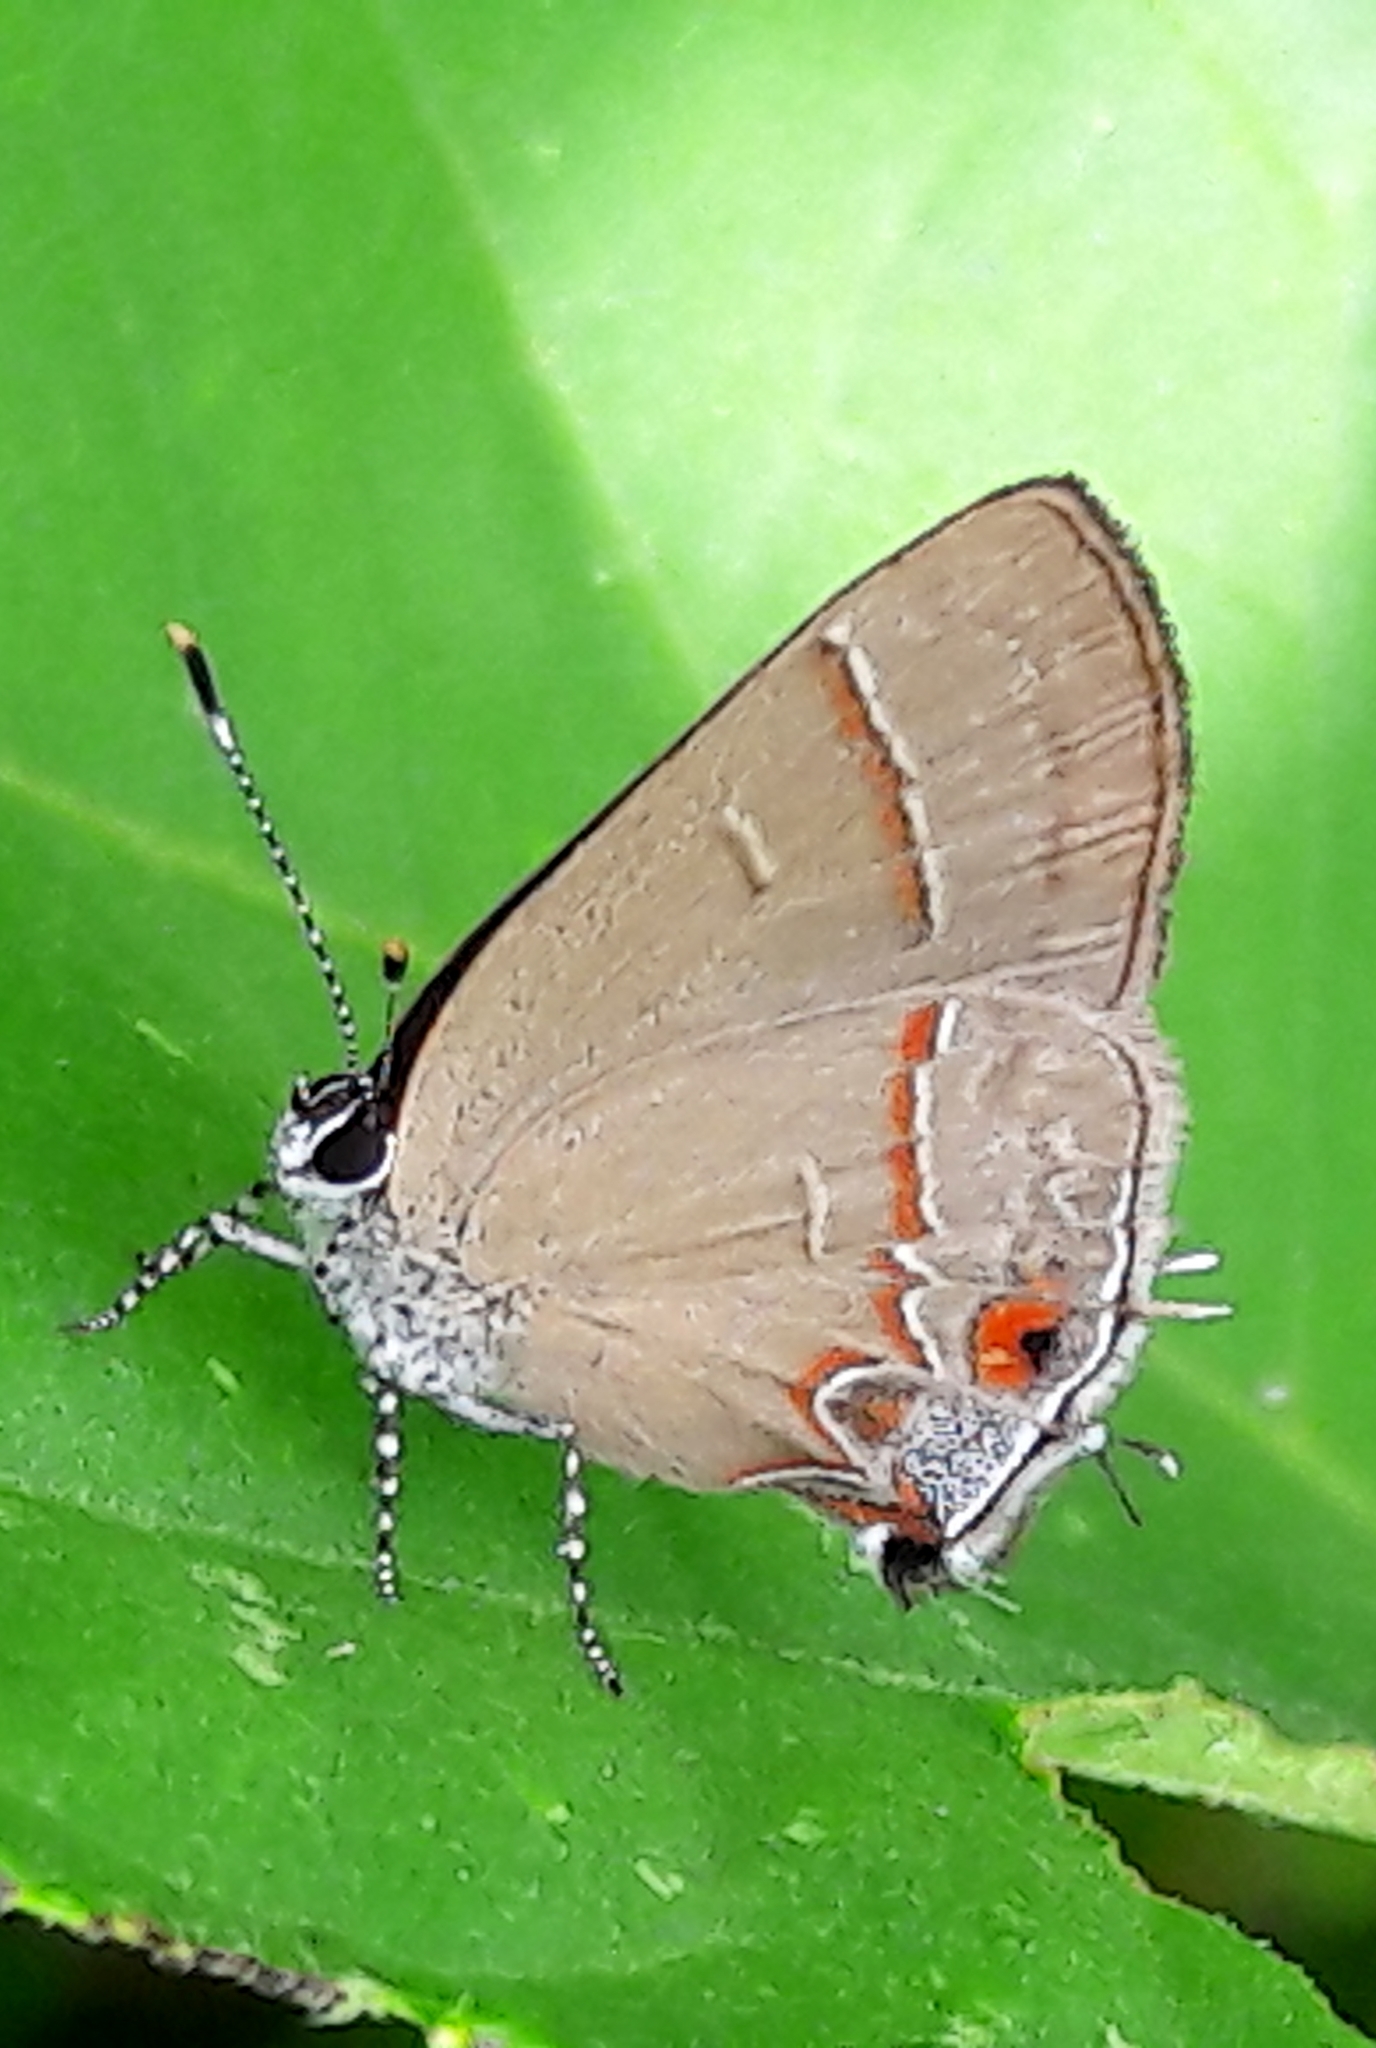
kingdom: Animalia
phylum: Arthropoda
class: Insecta
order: Lepidoptera
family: Lycaenidae
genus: Calycopis
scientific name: Calycopis thama
